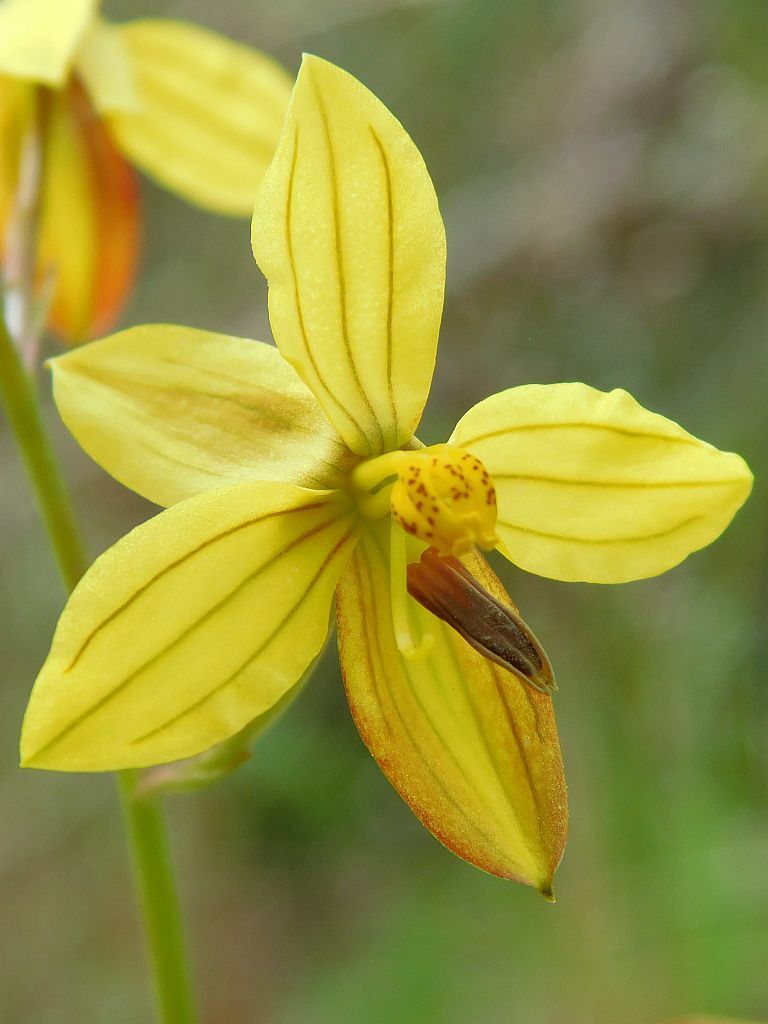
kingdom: Plantae
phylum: Tracheophyta
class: Liliopsida
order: Asparagales
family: Tecophilaeaceae
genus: Cyanella
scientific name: Cyanella lutea
